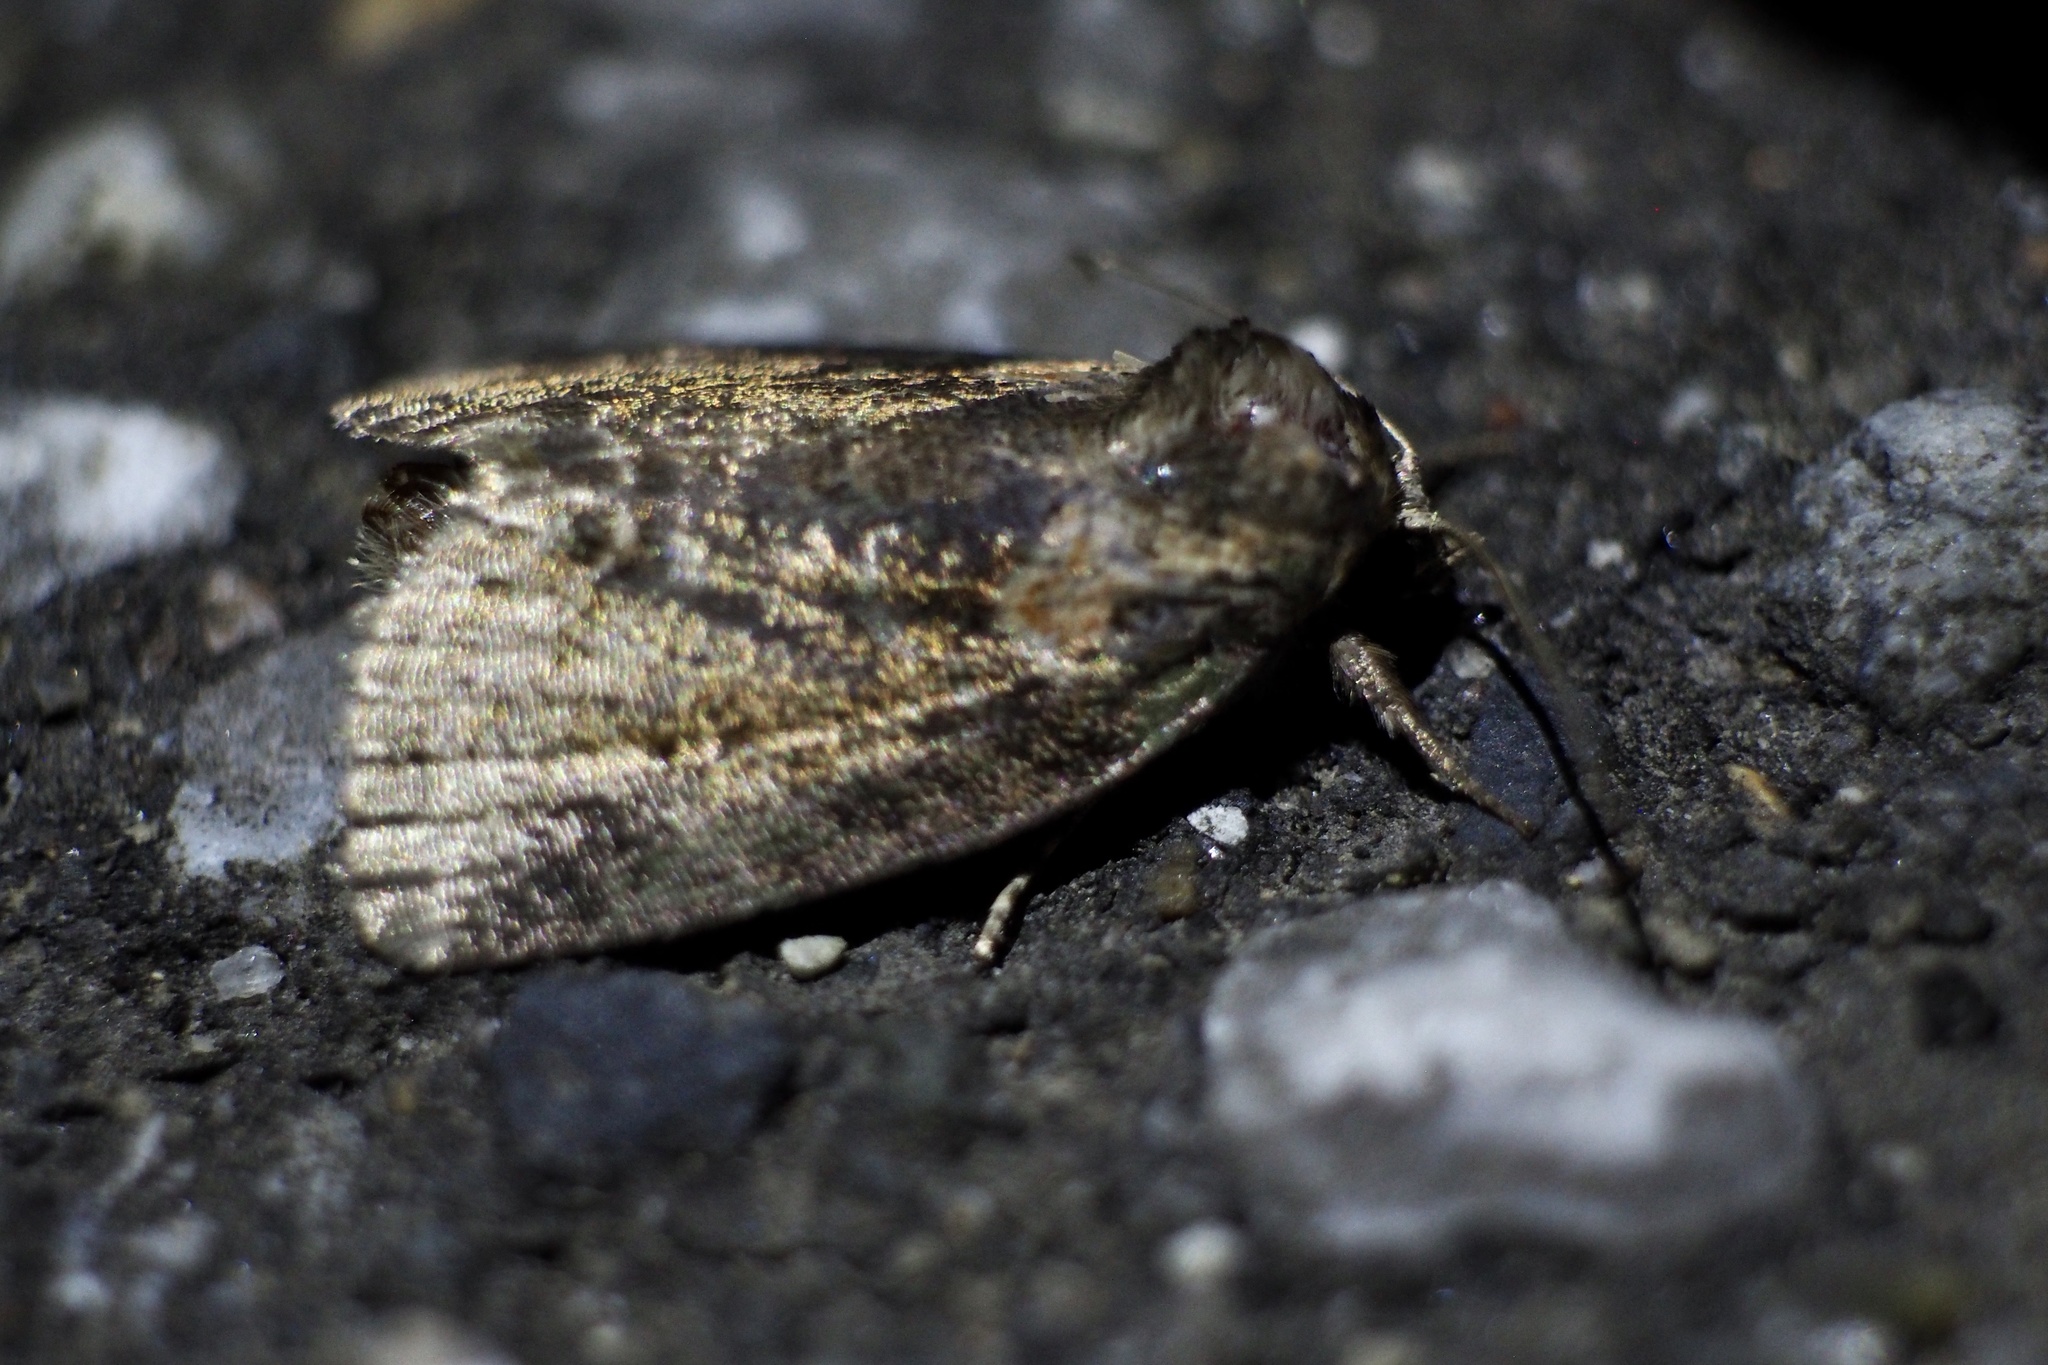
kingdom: Animalia
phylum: Arthropoda
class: Insecta
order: Lepidoptera
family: Noctuidae
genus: Stenoloba
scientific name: Stenoloba manleyi
